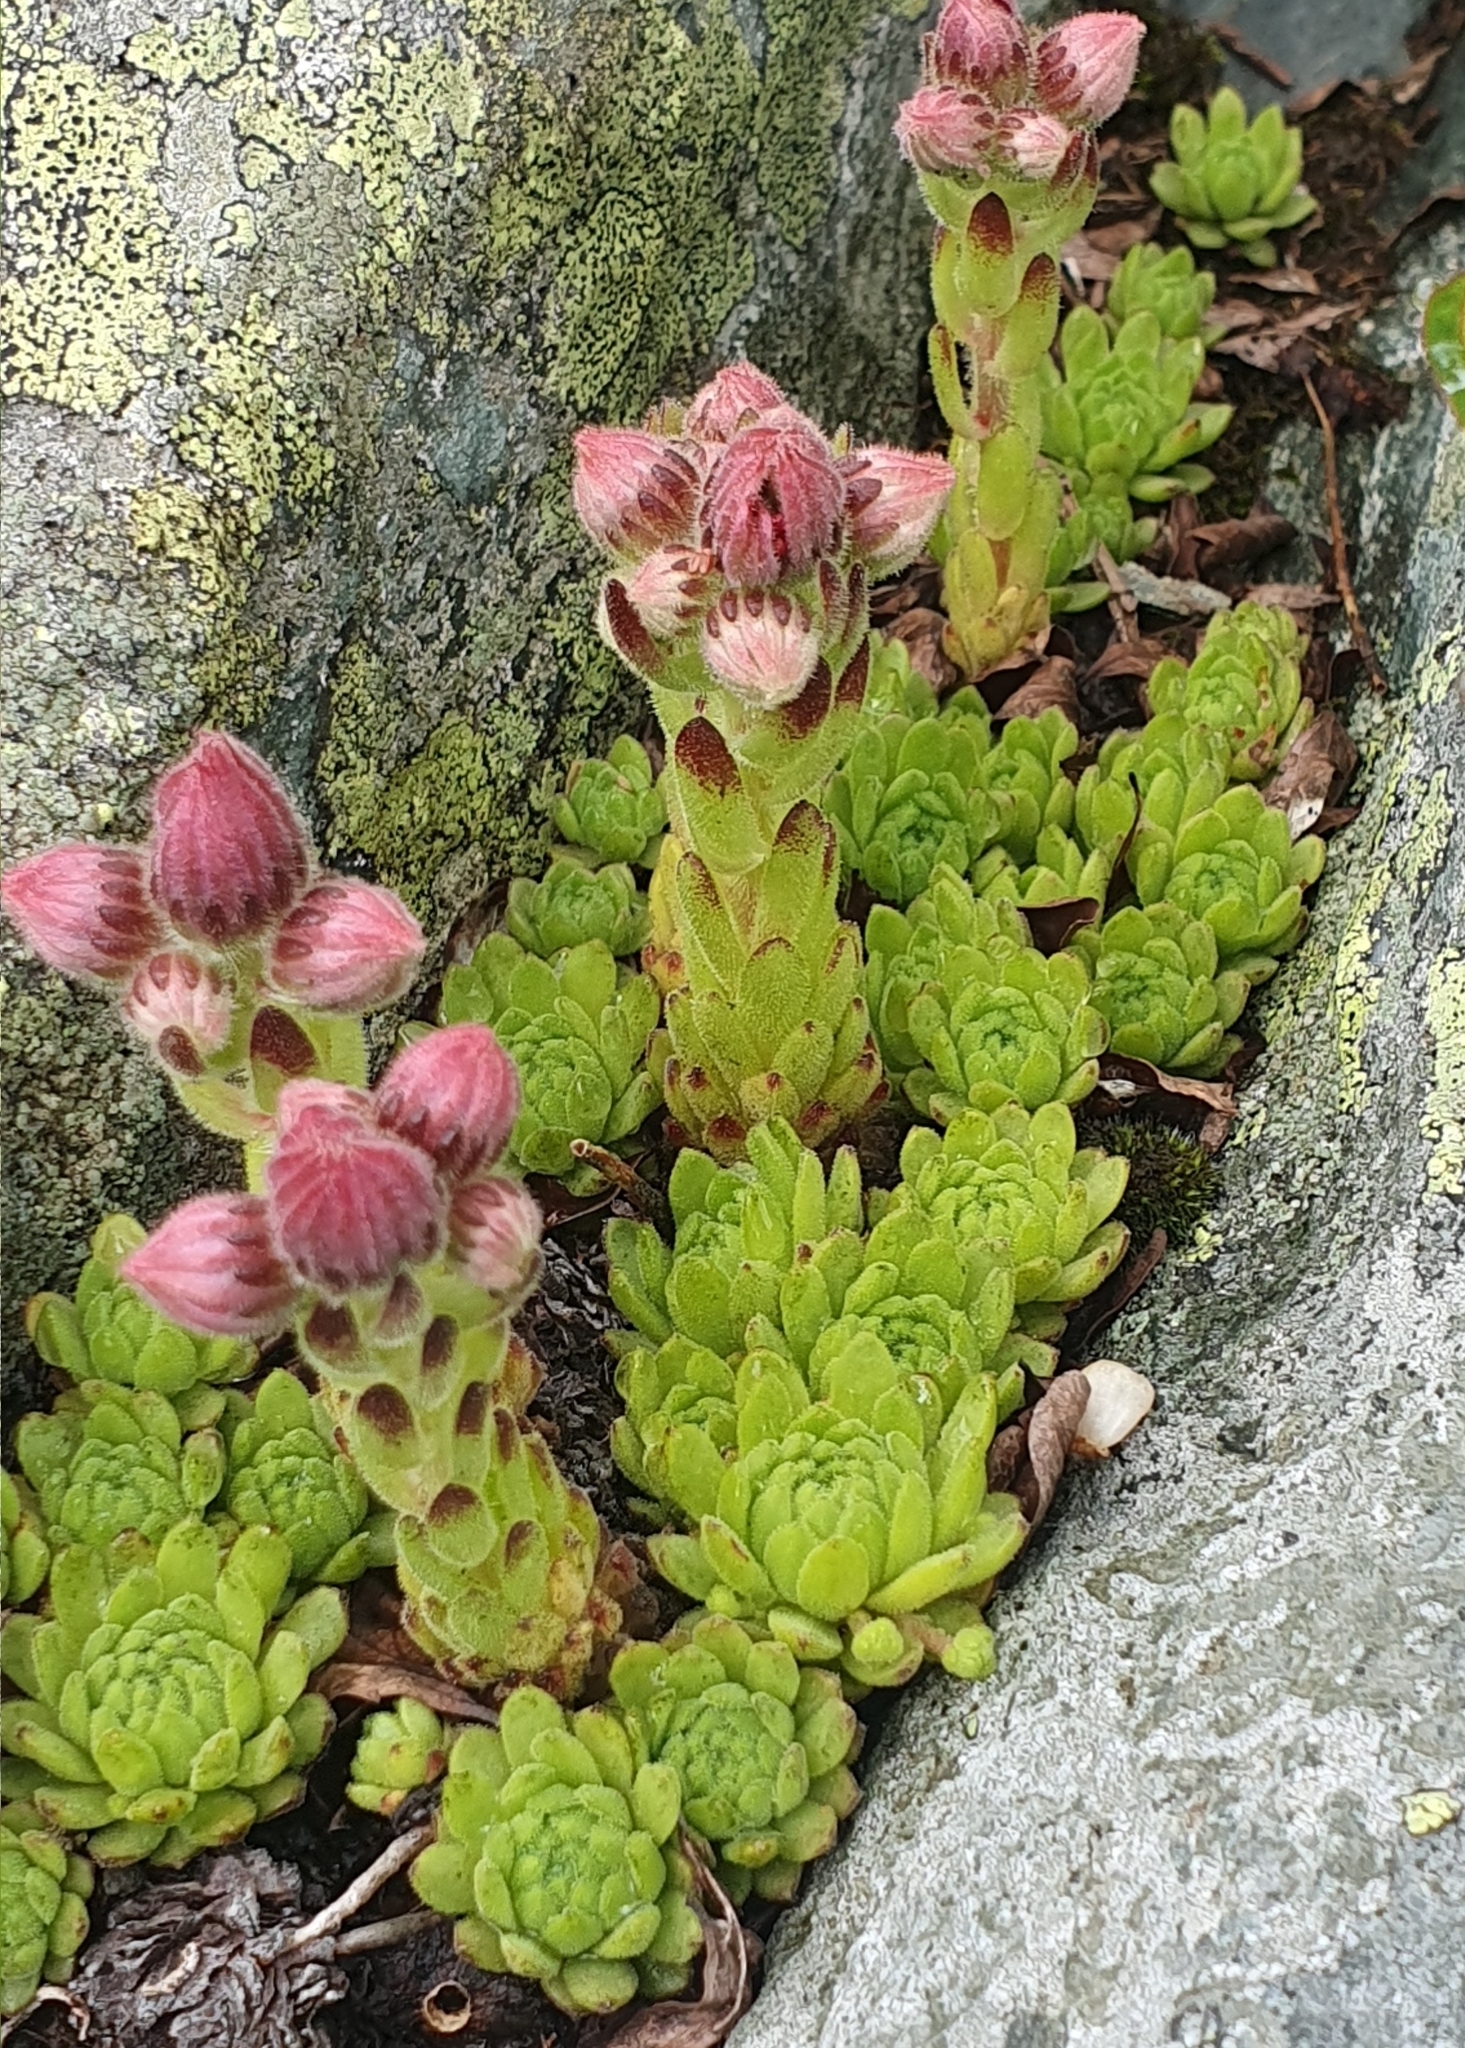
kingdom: Plantae
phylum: Tracheophyta
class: Magnoliopsida
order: Saxifragales
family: Crassulaceae
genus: Sempervivum
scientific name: Sempervivum montanum
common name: Mountain house-leek
